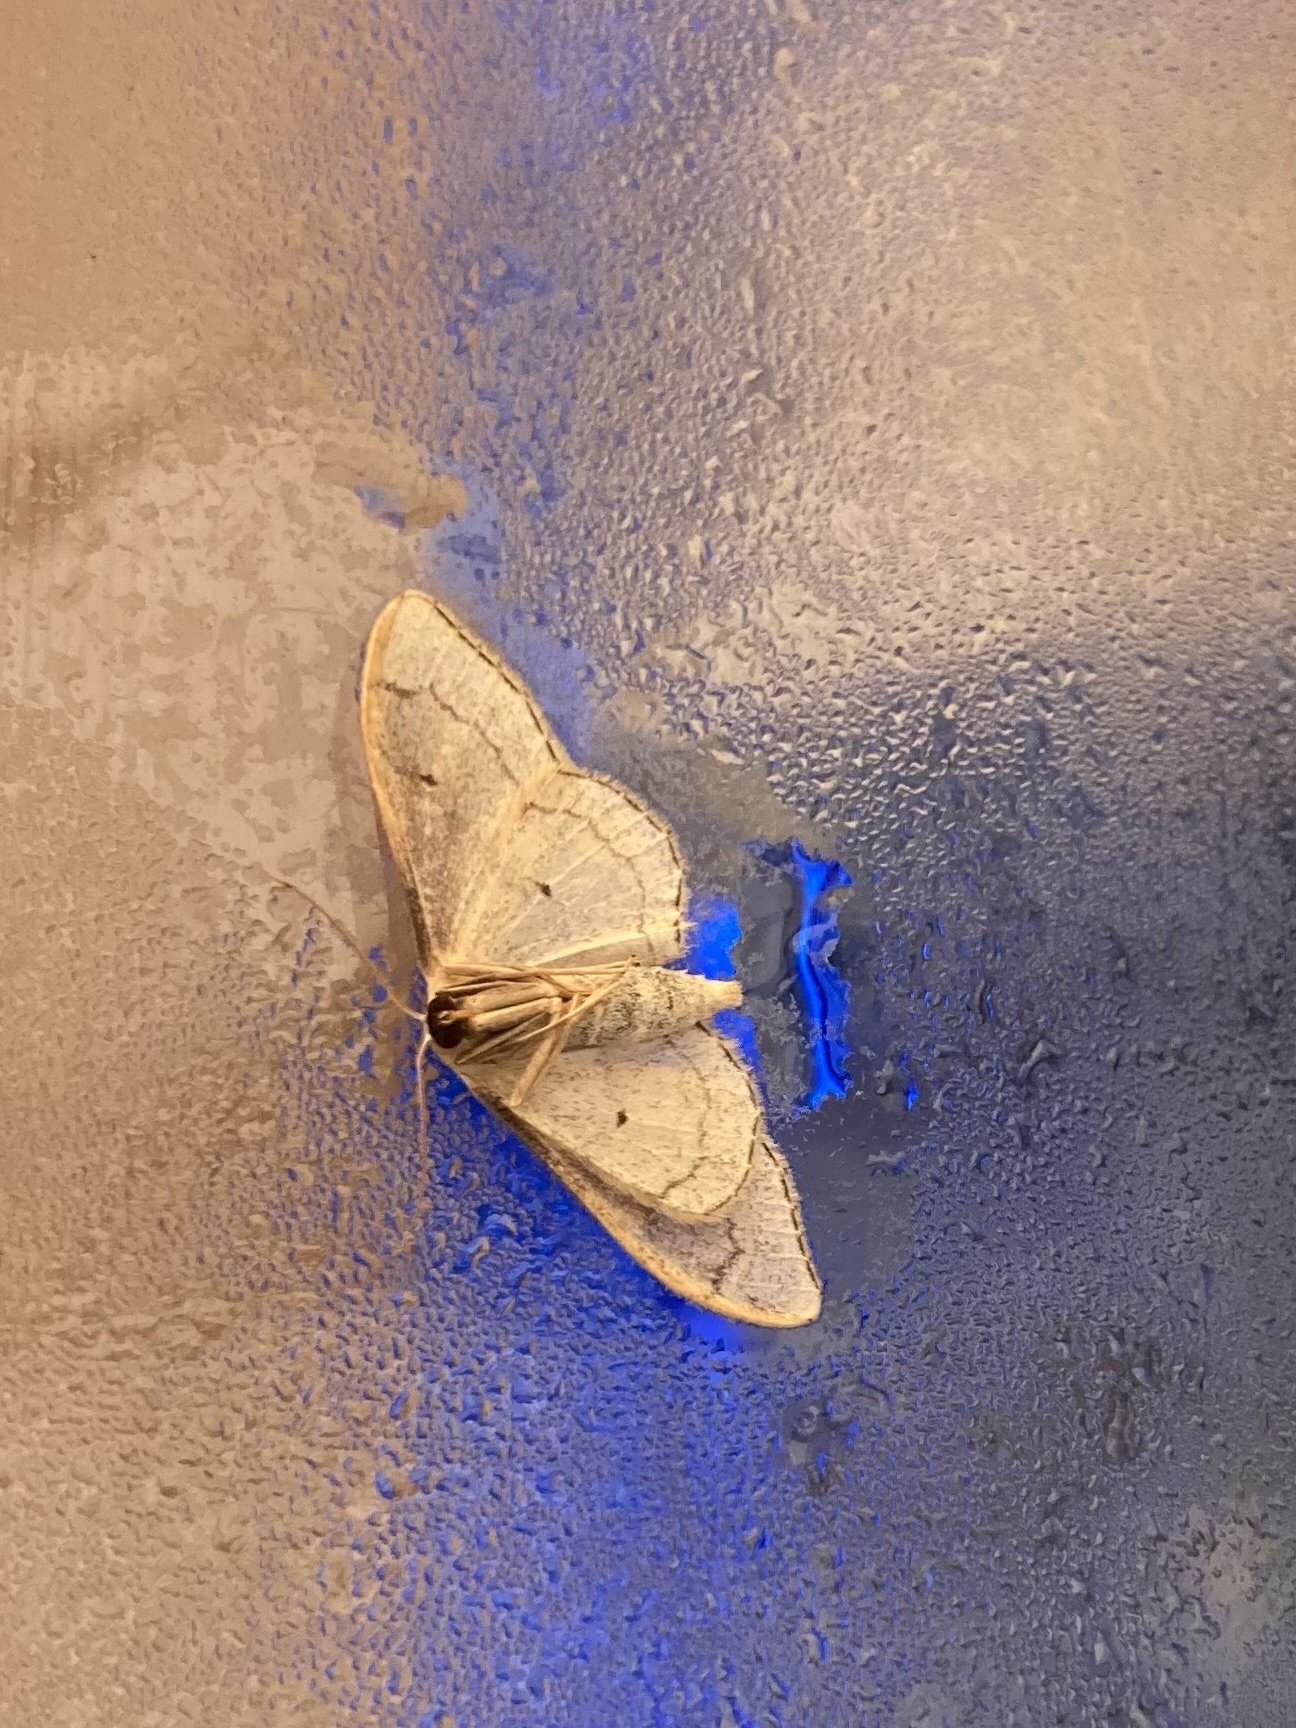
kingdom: Animalia
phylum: Arthropoda
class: Insecta
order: Lepidoptera
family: Geometridae
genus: Idaea
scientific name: Idaea aversata
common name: Riband wave
